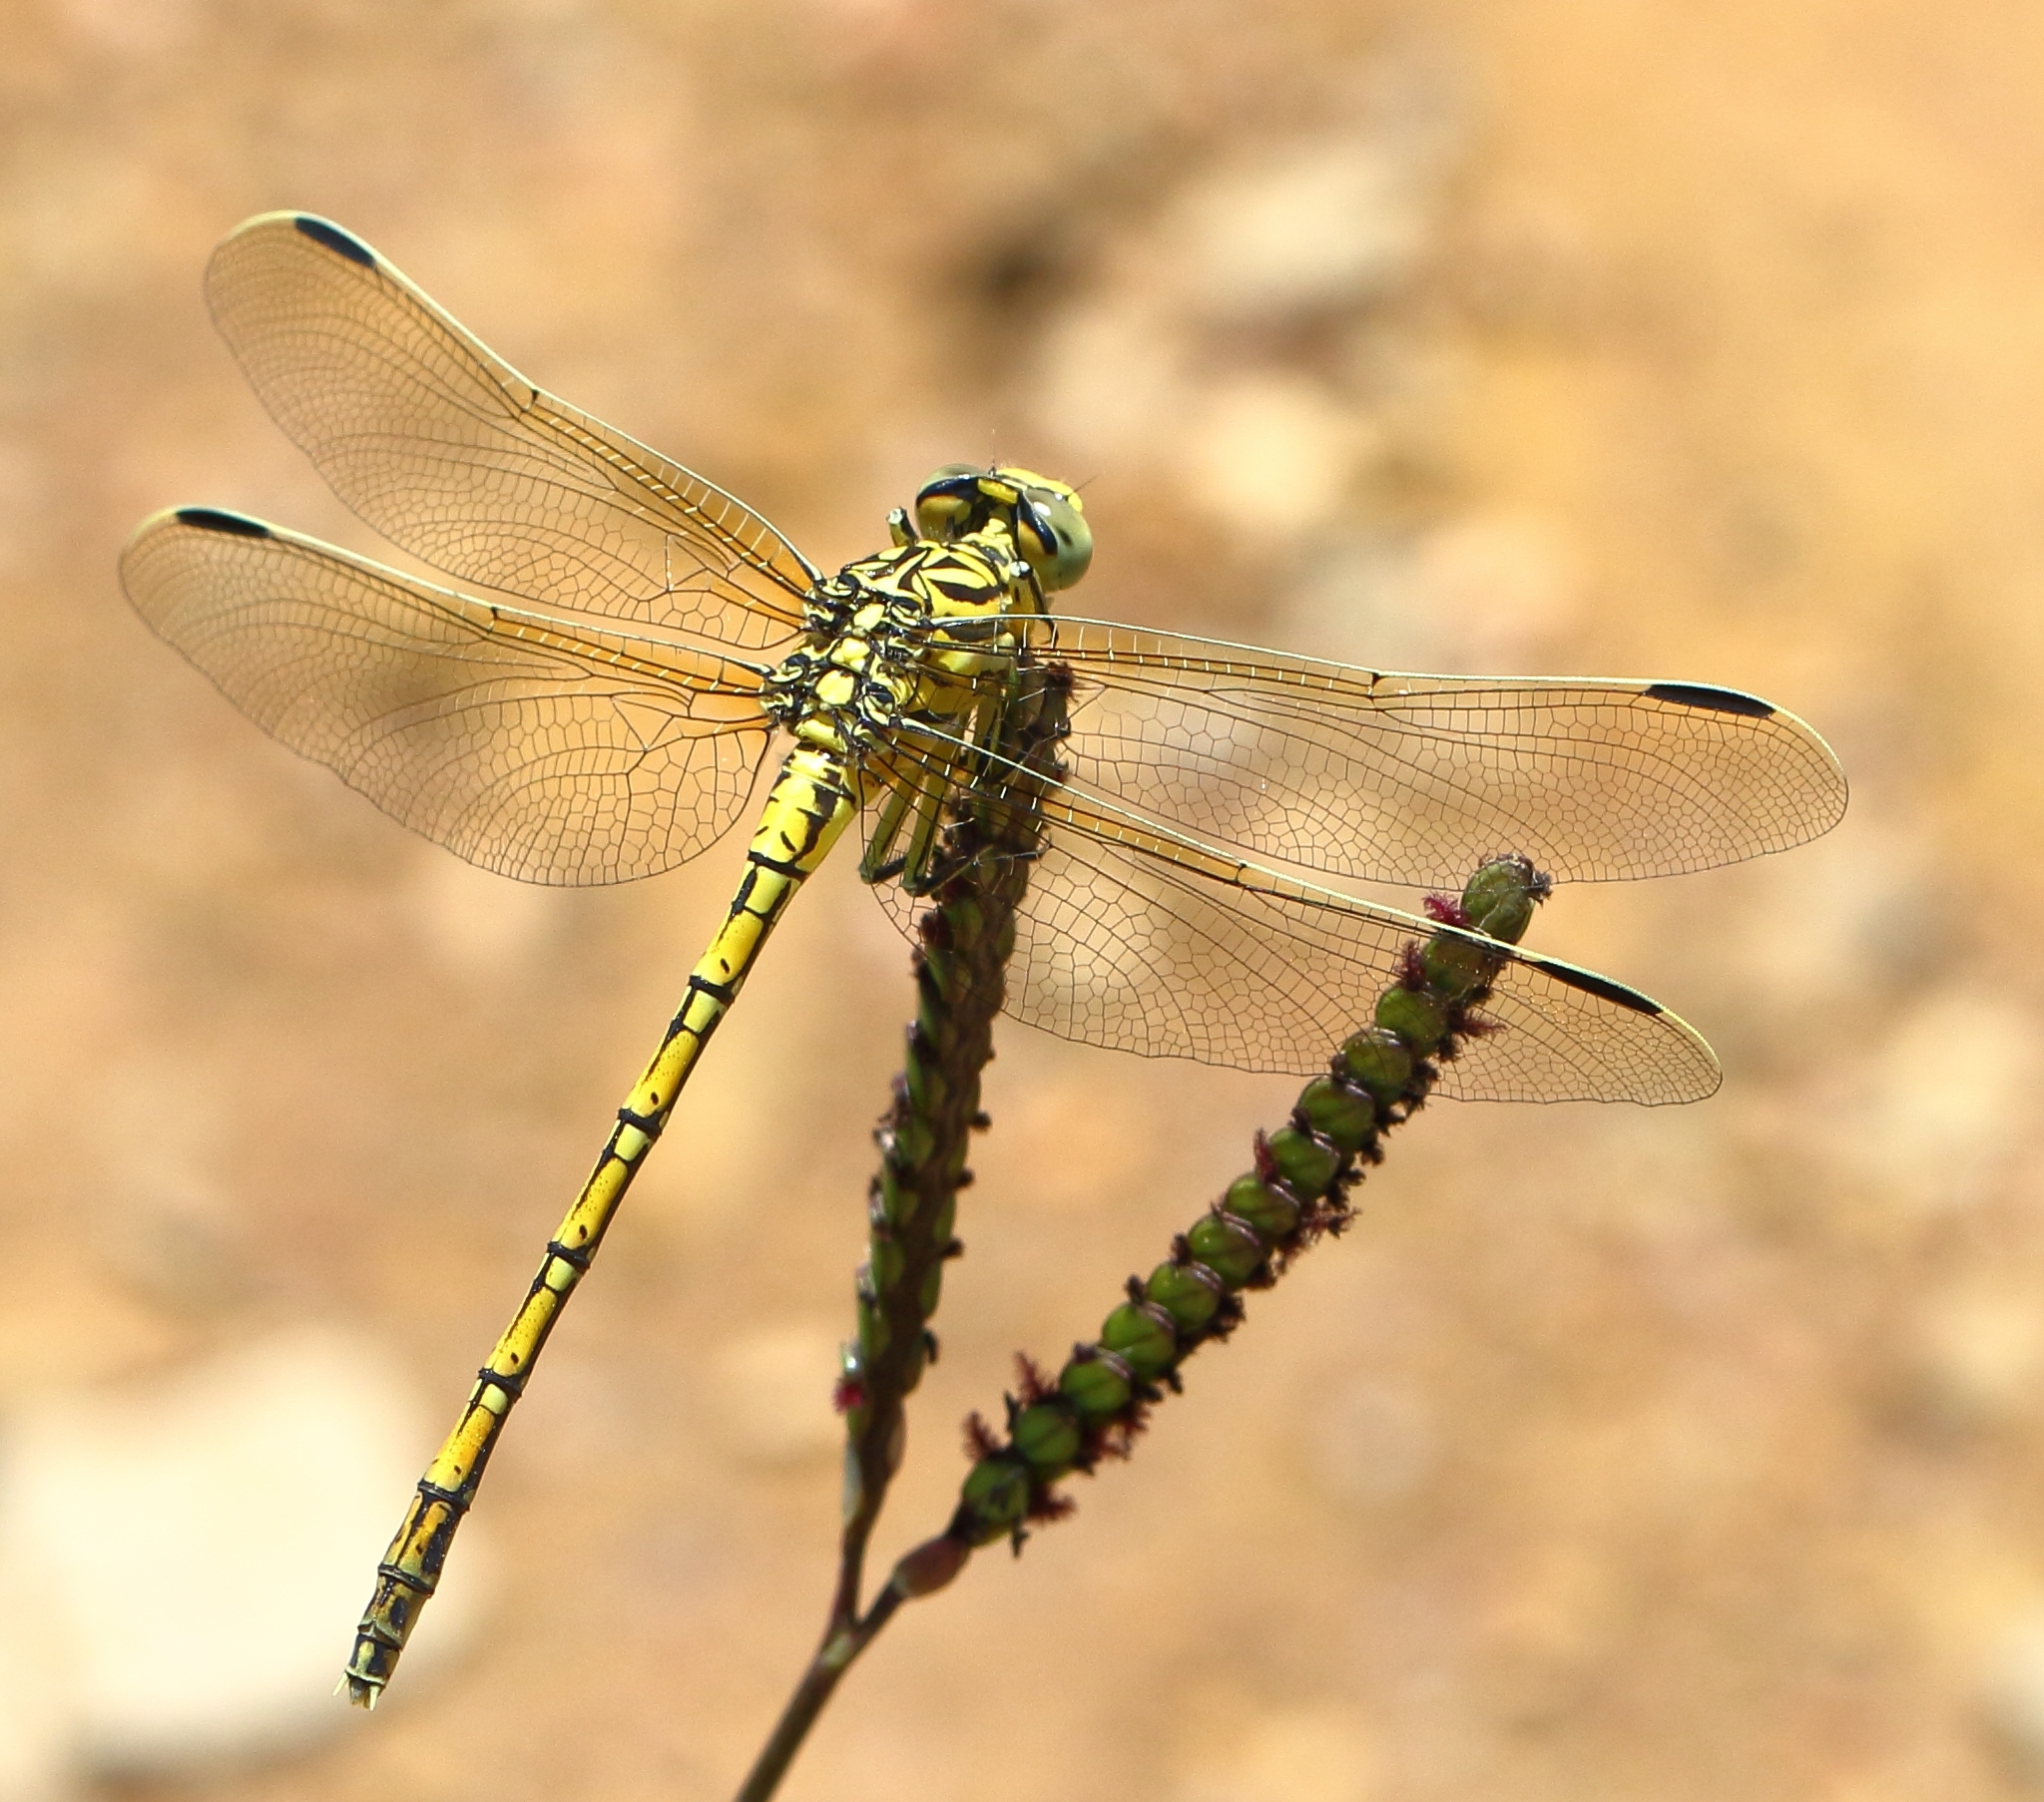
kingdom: Animalia
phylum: Arthropoda
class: Insecta
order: Odonata
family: Gomphidae
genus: Ceratogomphus
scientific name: Ceratogomphus pictus
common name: Common thorntail
